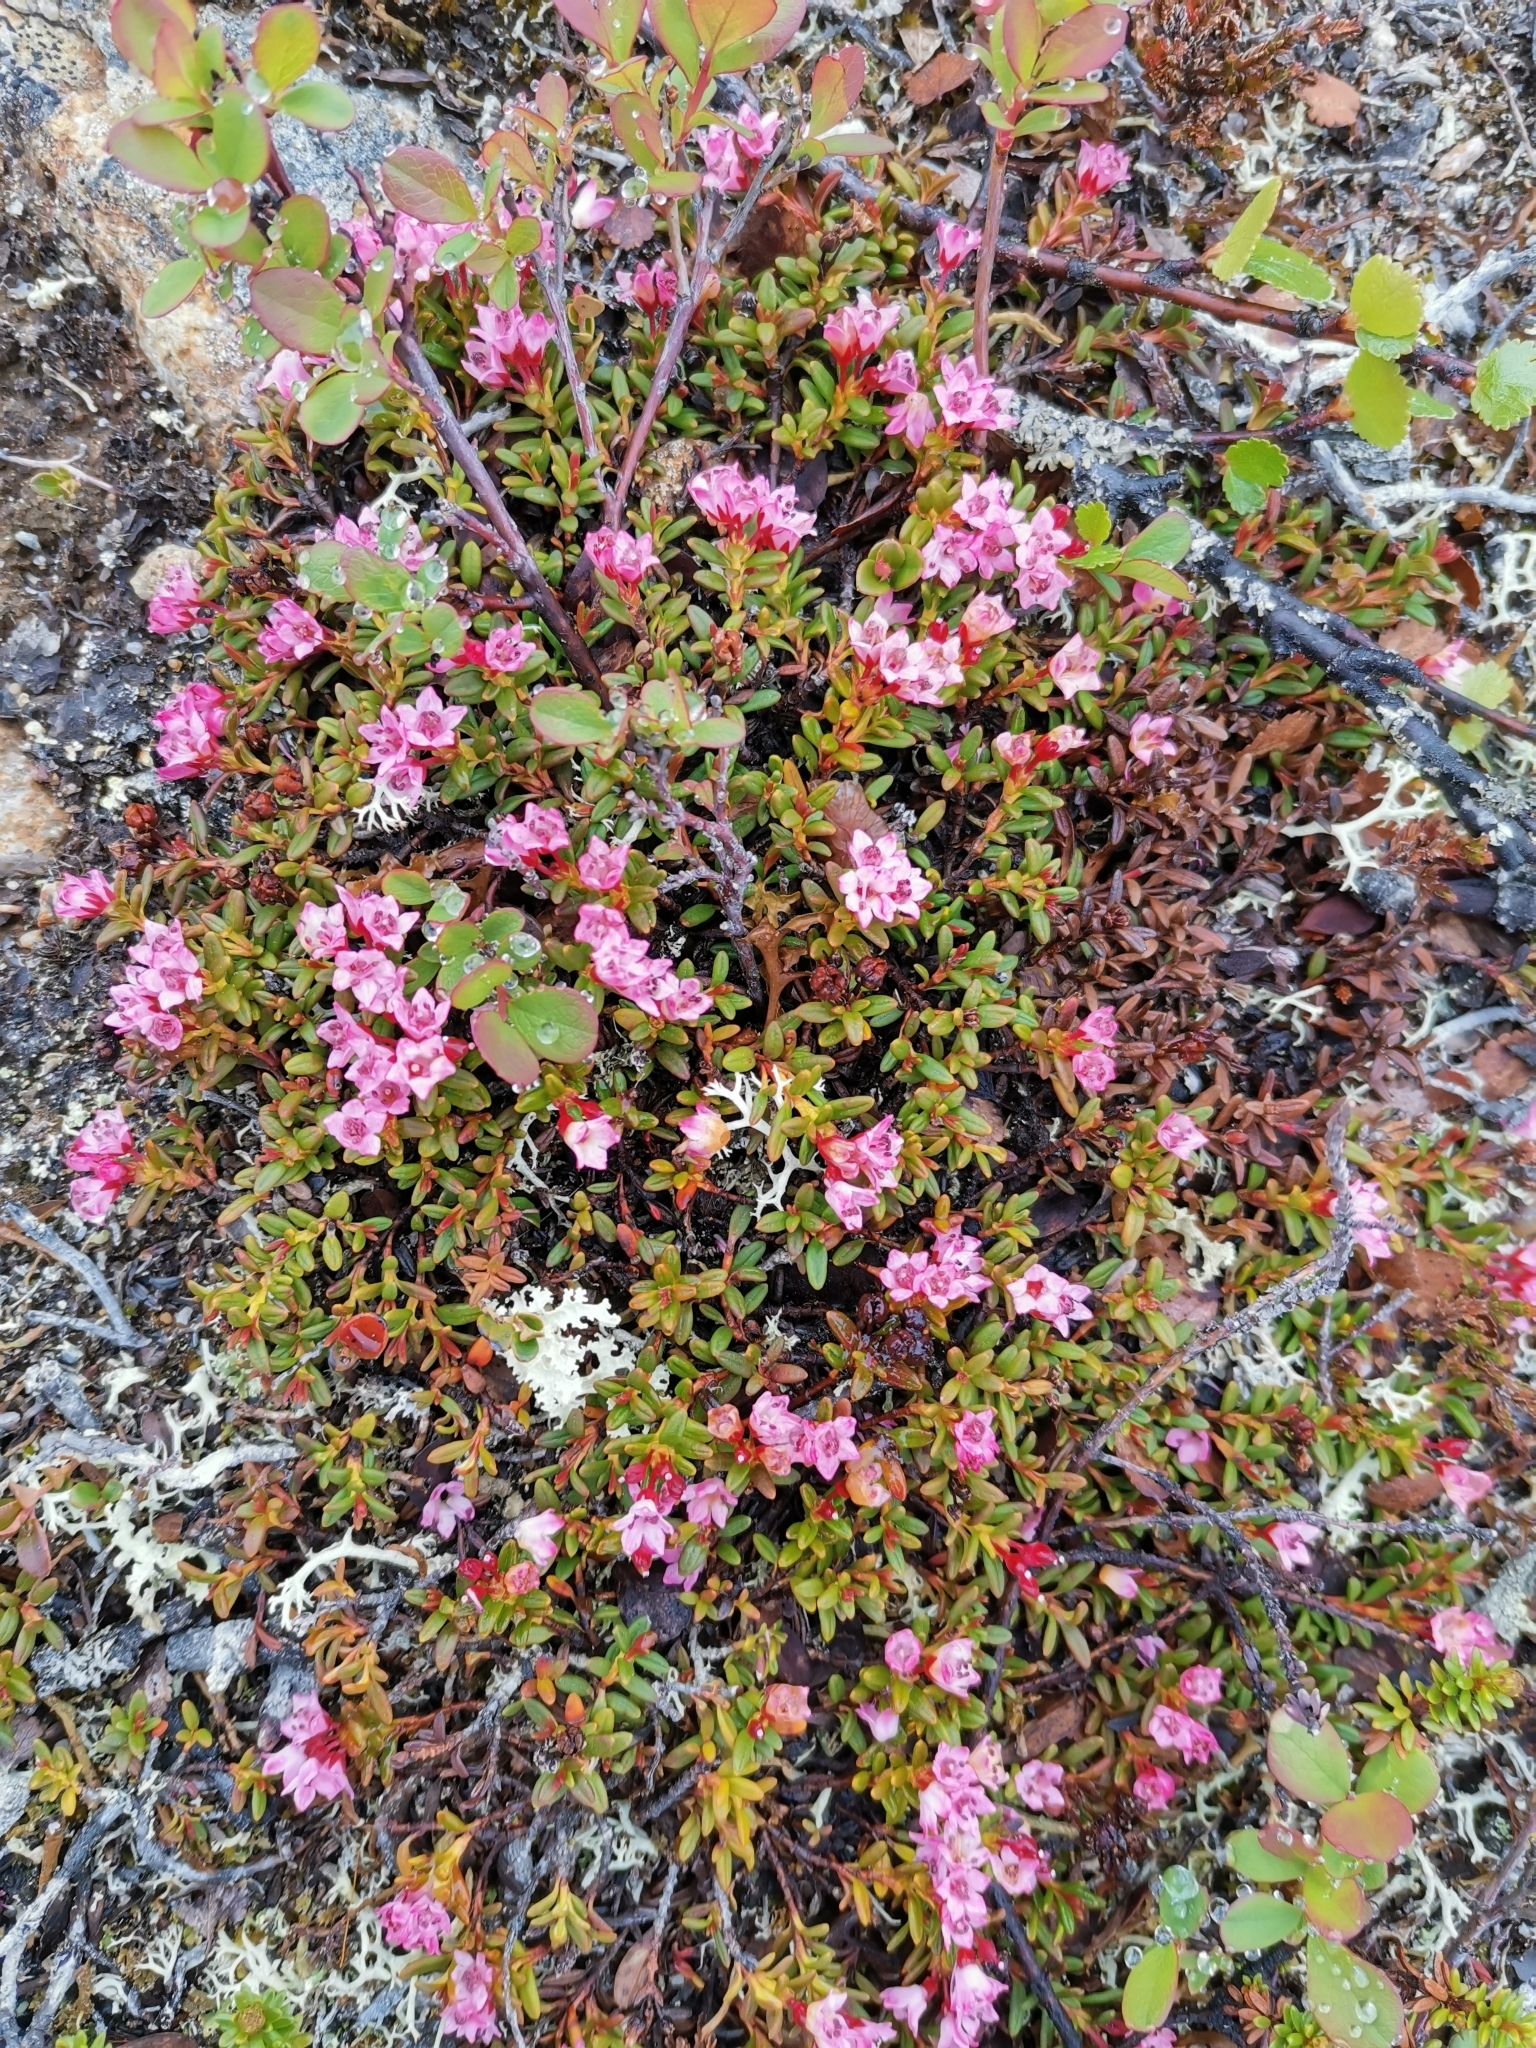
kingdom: Plantae
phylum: Tracheophyta
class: Magnoliopsida
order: Ericales
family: Ericaceae
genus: Kalmia
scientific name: Kalmia procumbens
